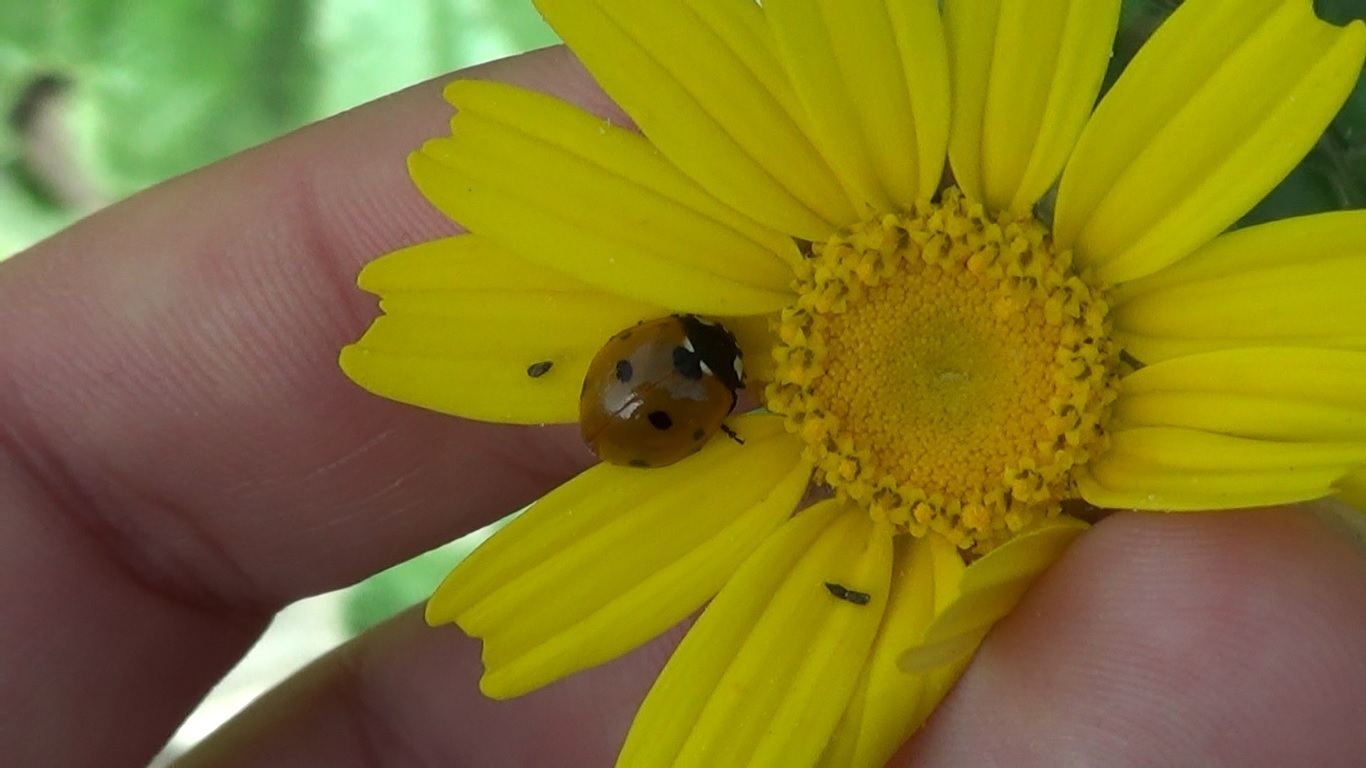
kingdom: Animalia
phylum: Arthropoda
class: Insecta
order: Coleoptera
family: Coccinellidae
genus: Coccinella
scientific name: Coccinella septempunctata
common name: Sevenspotted lady beetle
